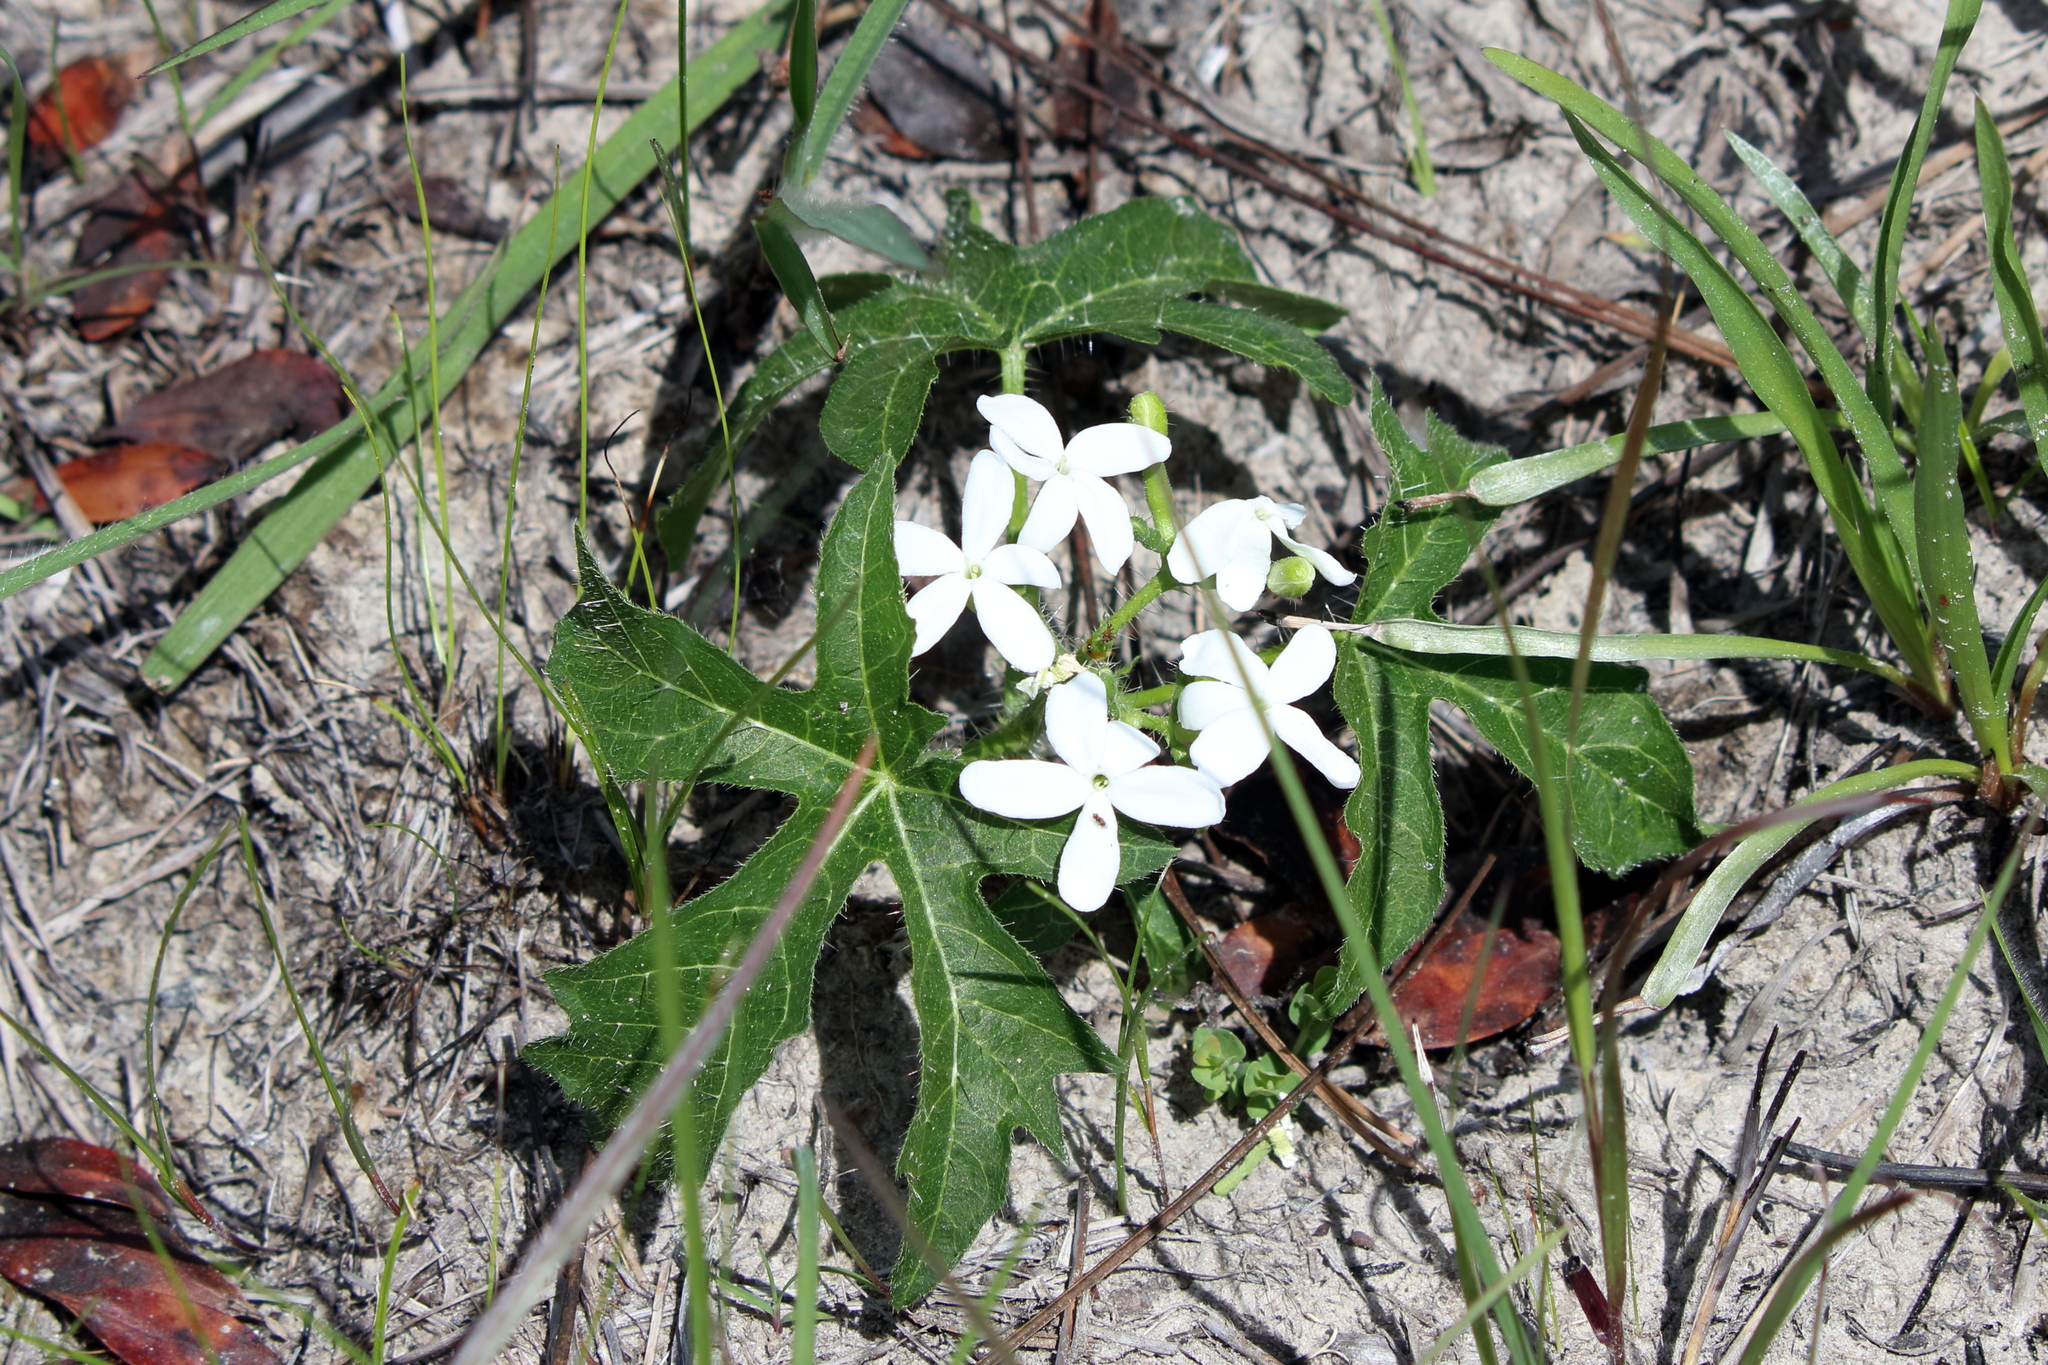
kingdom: Plantae
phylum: Tracheophyta
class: Magnoliopsida
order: Malpighiales
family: Euphorbiaceae
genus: Cnidoscolus
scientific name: Cnidoscolus stimulosus
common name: Bull-nettle
